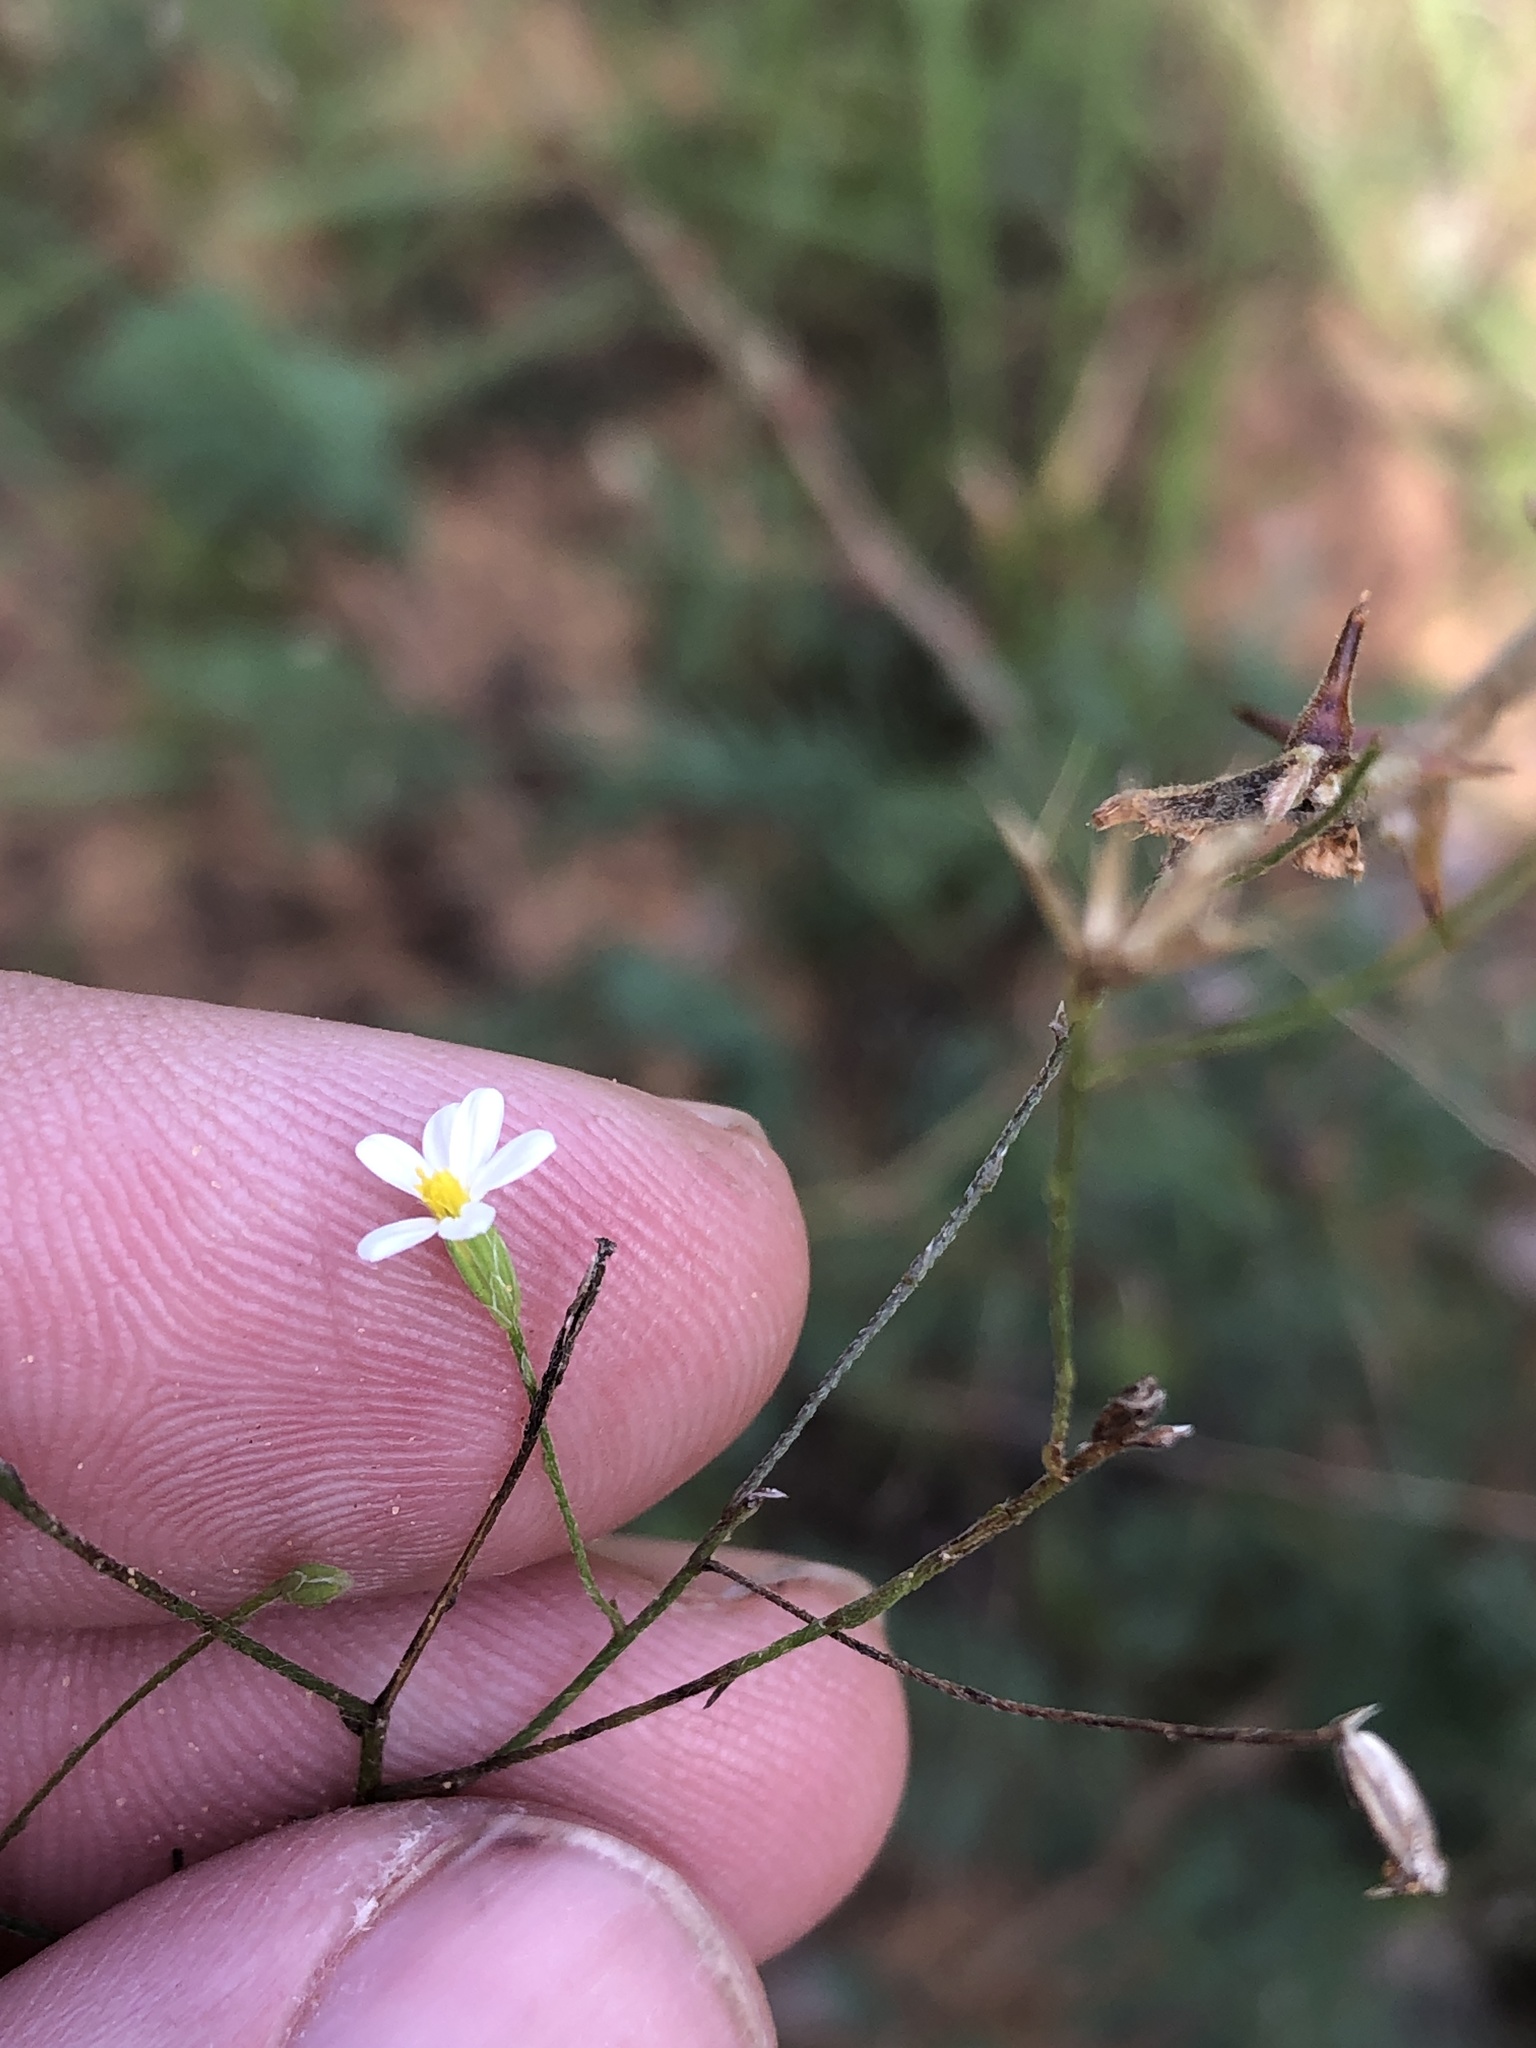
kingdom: Plantae
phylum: Tracheophyta
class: Magnoliopsida
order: Asterales
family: Asteraceae
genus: Chaetopappa
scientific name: Chaetopappa asteroides
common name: Tiny lazy daisy
